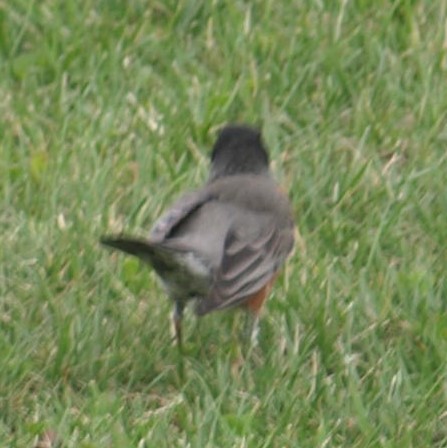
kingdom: Animalia
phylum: Chordata
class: Aves
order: Passeriformes
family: Turdidae
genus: Turdus
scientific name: Turdus migratorius
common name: American robin
